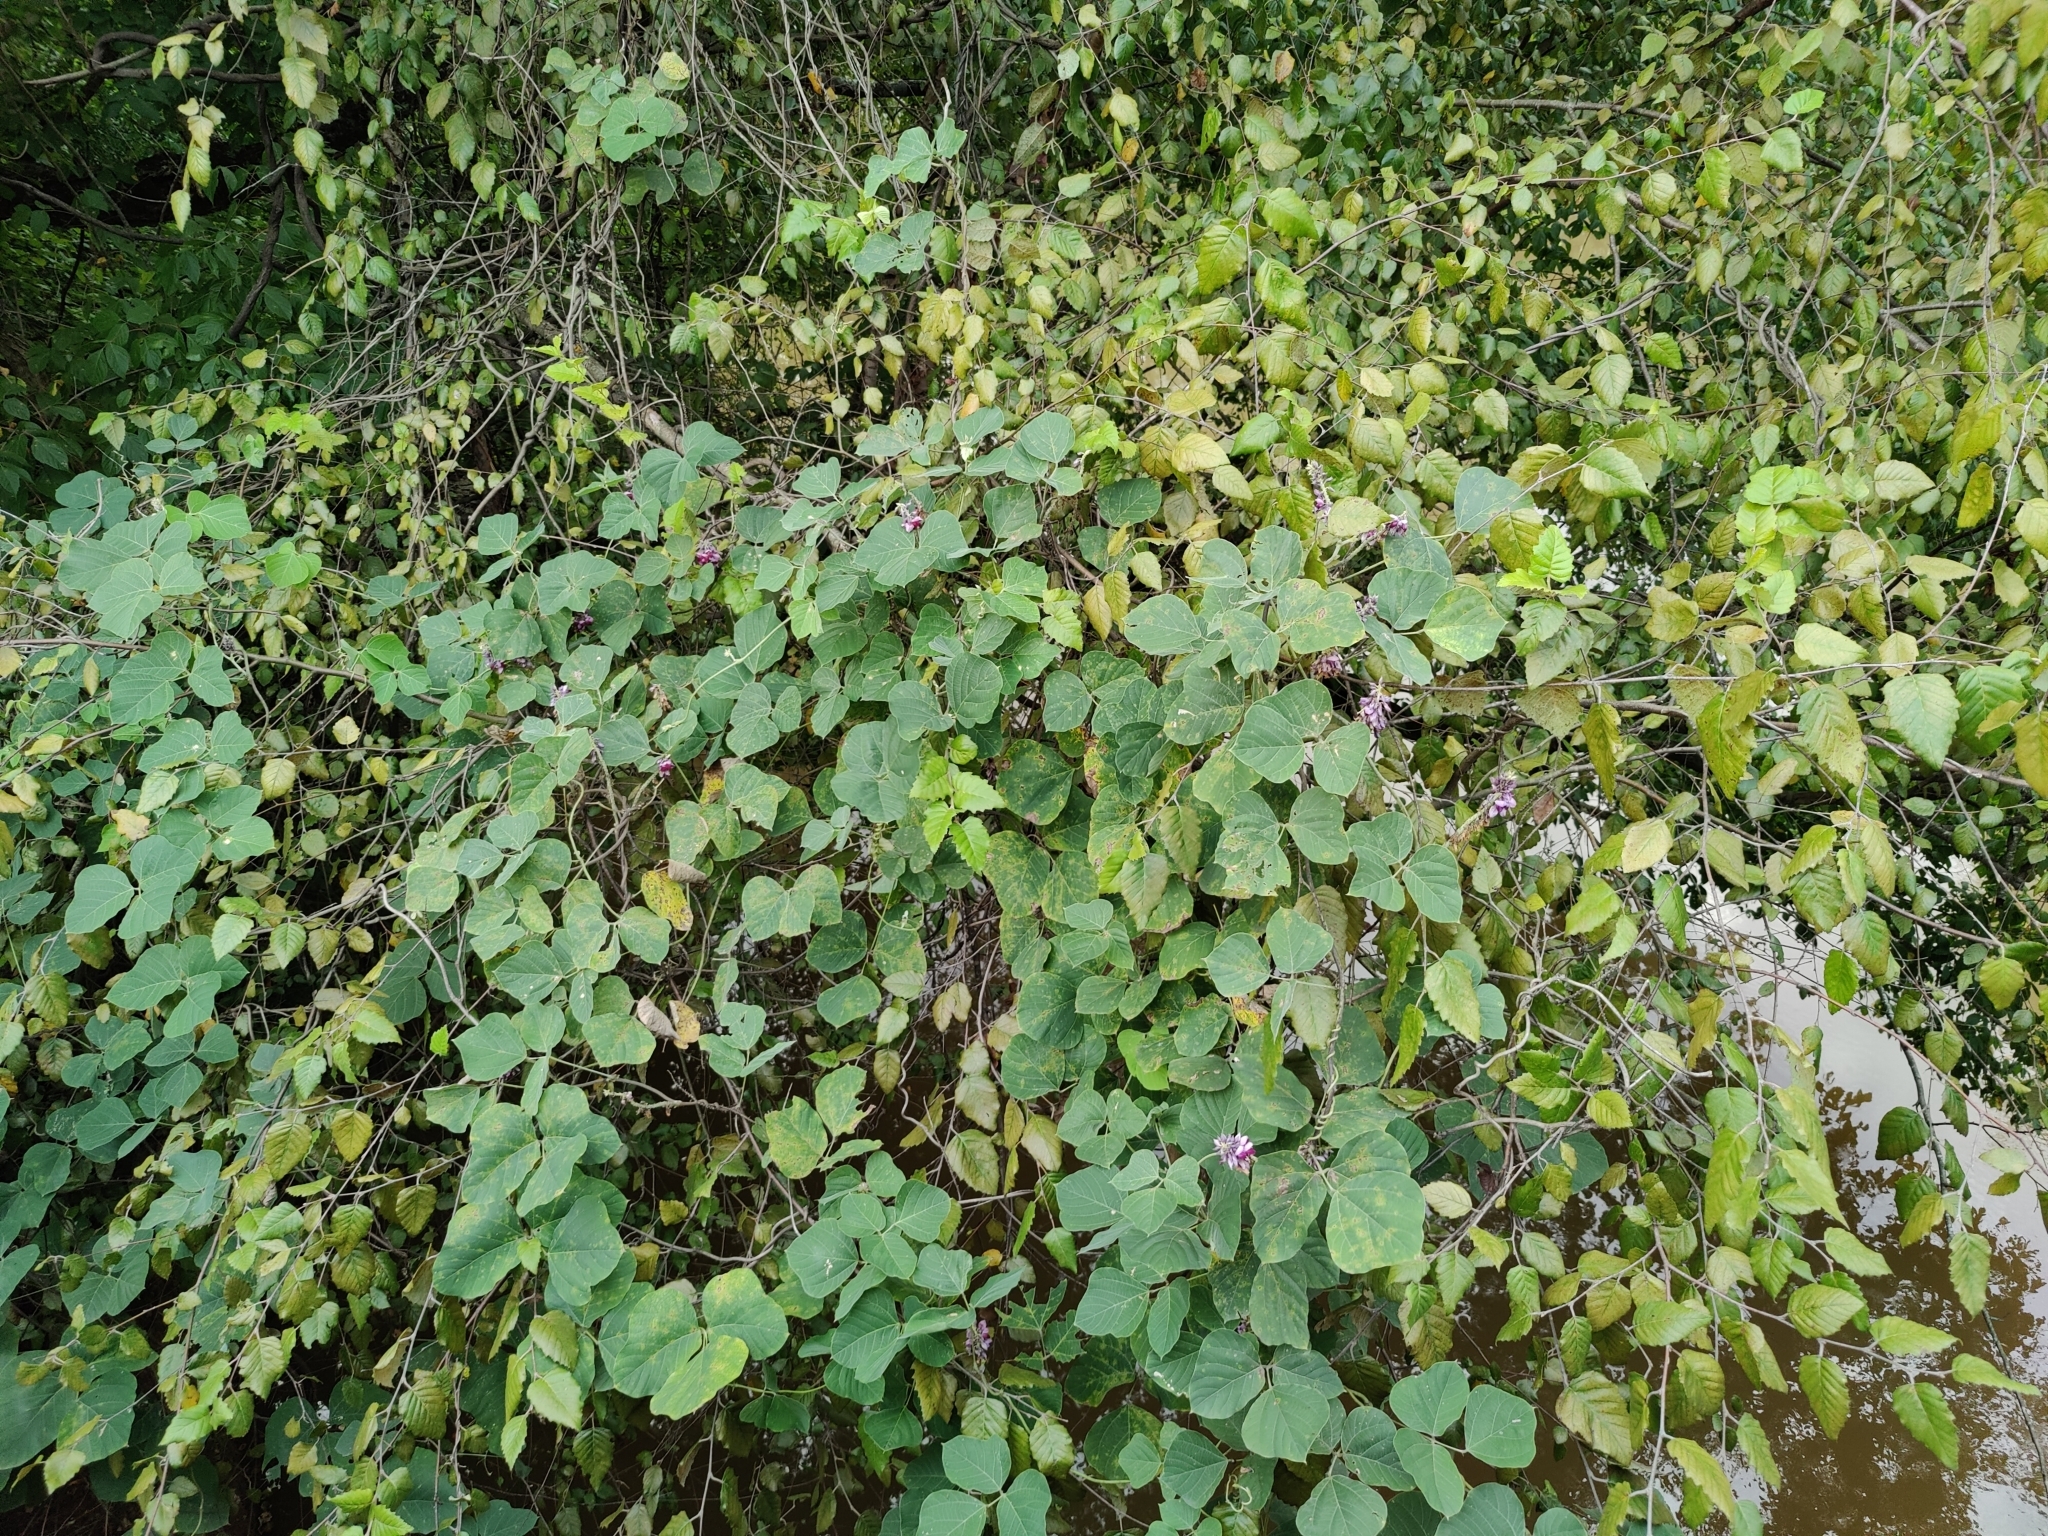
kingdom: Plantae
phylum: Tracheophyta
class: Magnoliopsida
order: Fabales
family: Fabaceae
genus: Pueraria
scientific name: Pueraria montana
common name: Kudzu
